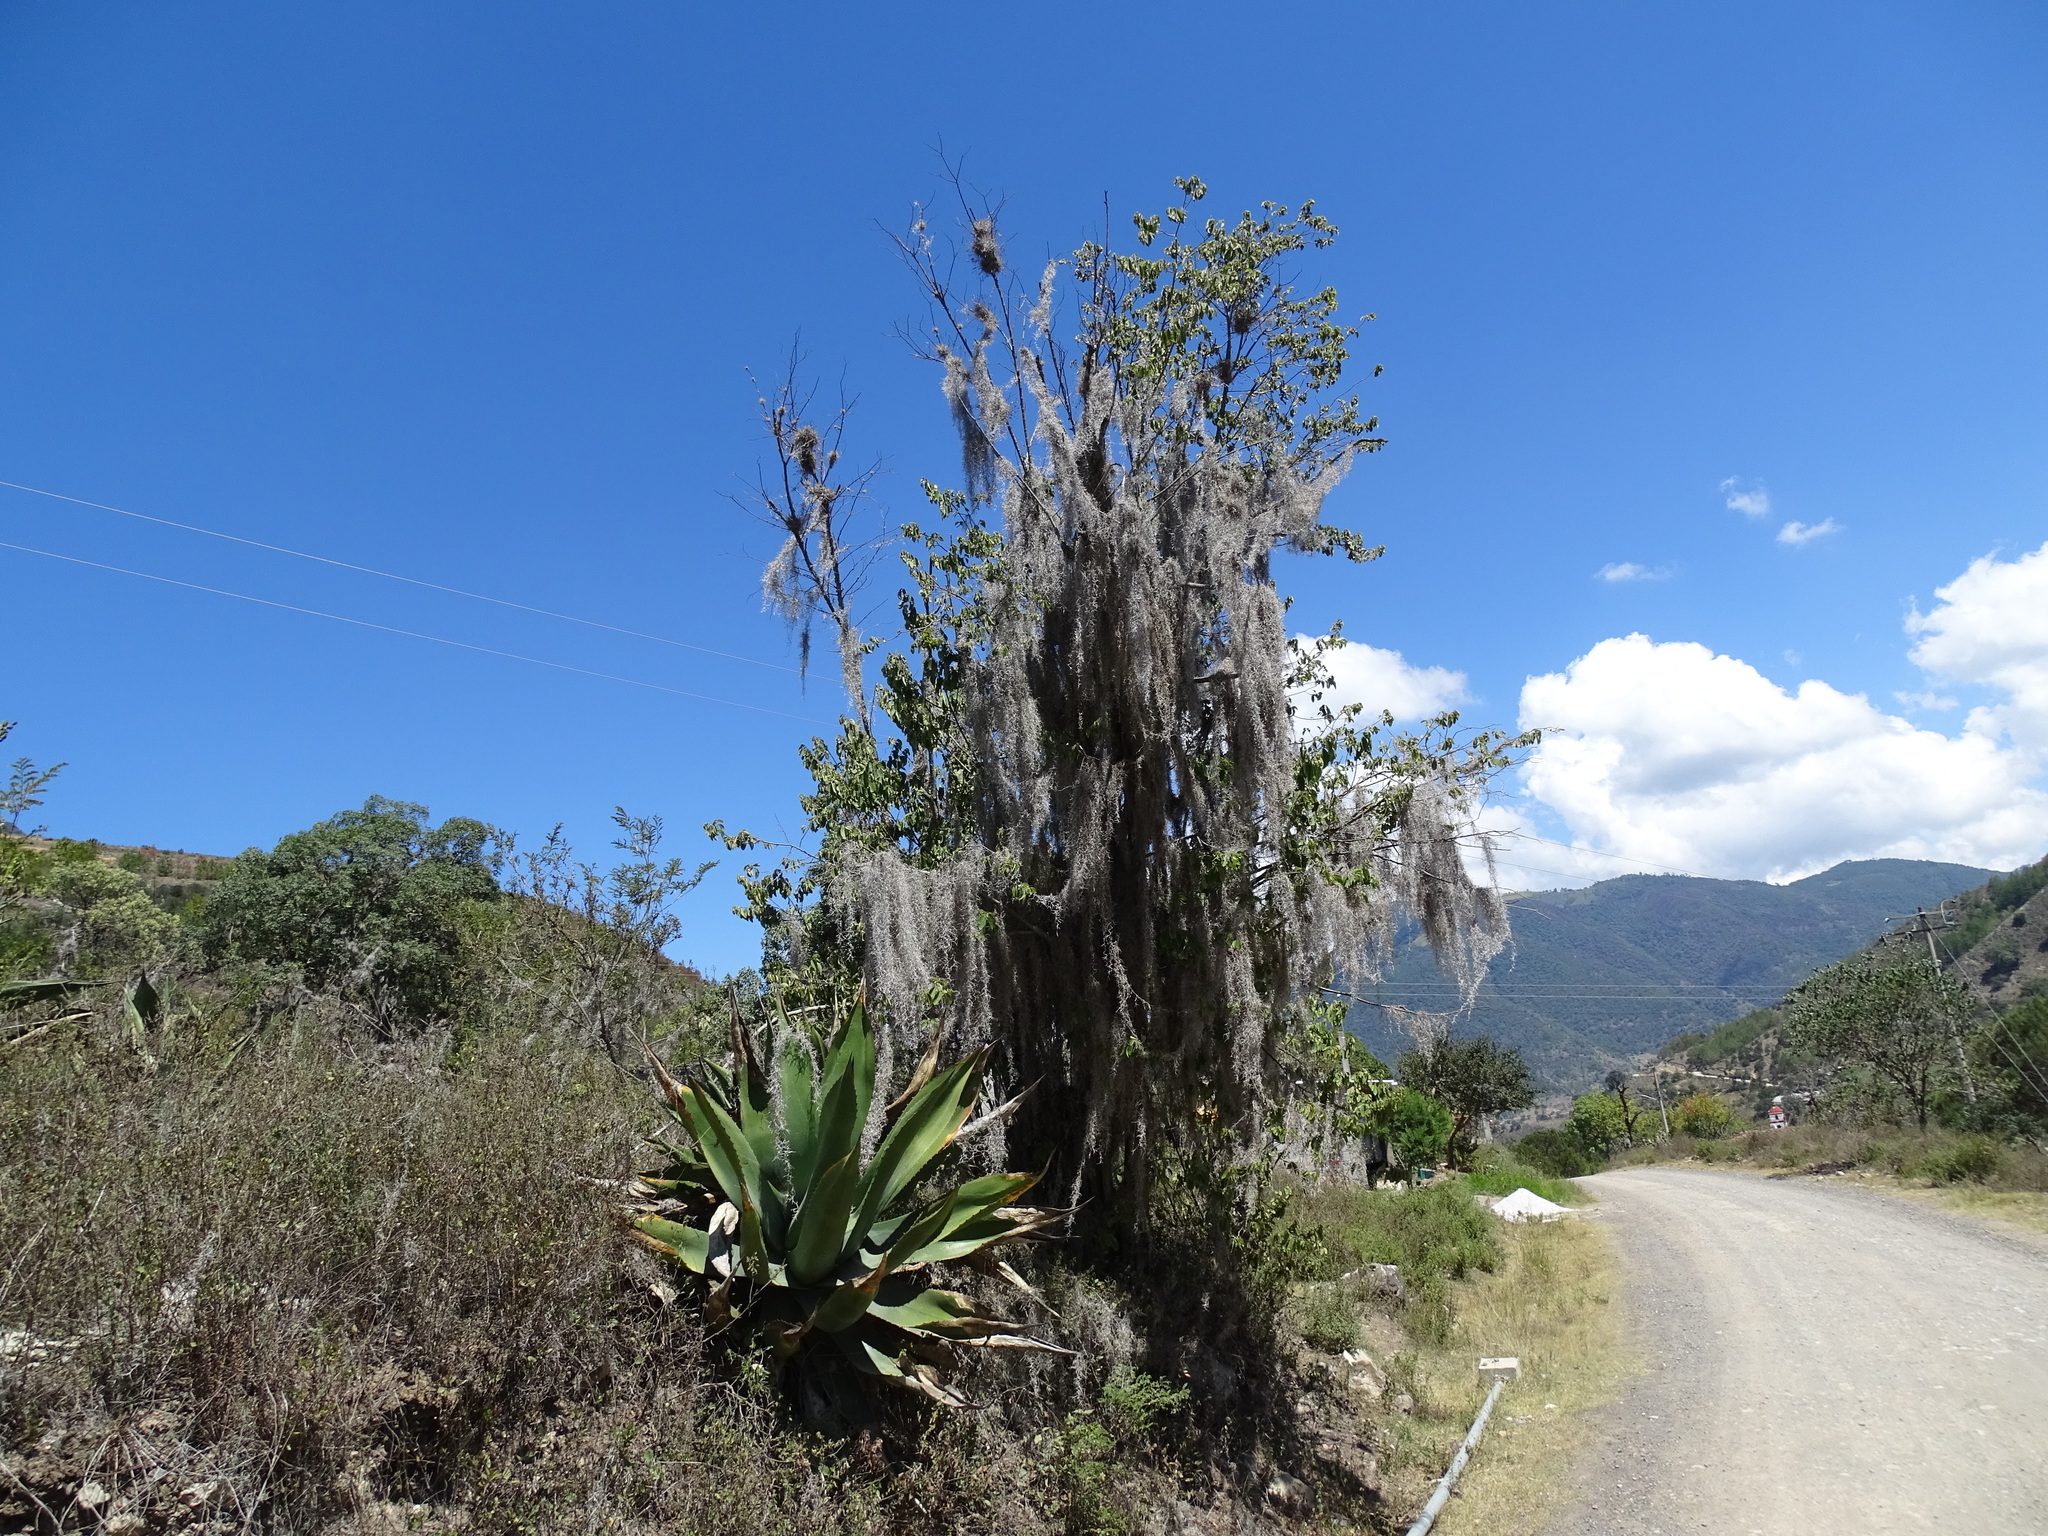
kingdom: Plantae
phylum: Tracheophyta
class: Liliopsida
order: Poales
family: Bromeliaceae
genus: Tillandsia
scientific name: Tillandsia usneoides
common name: Spanish moss
